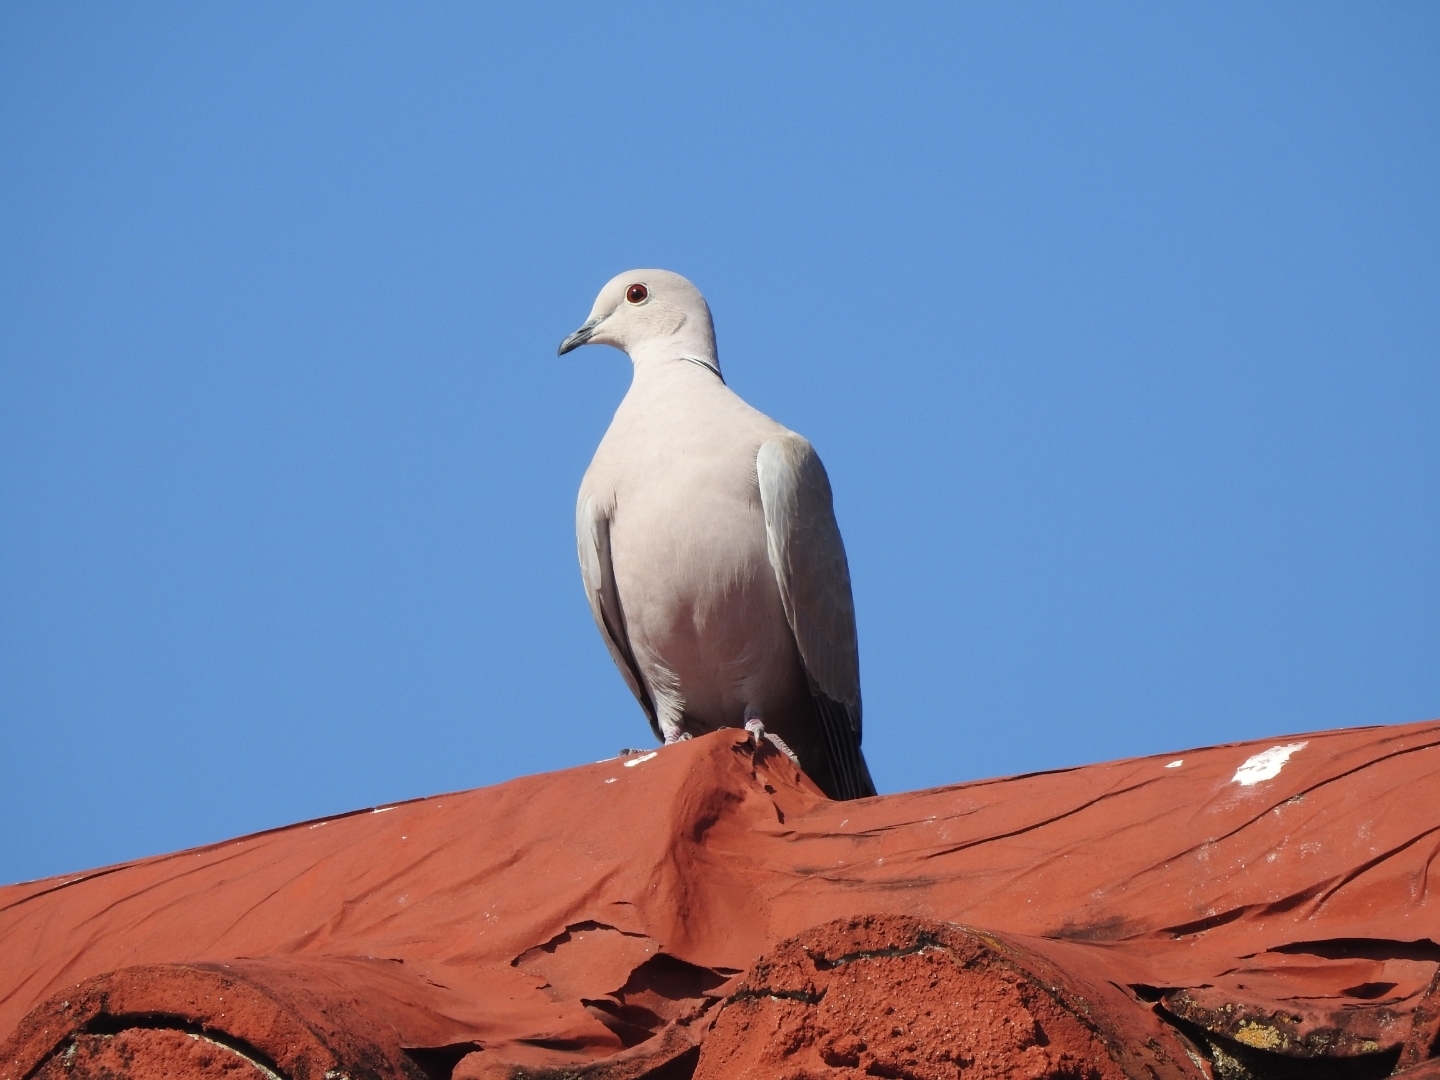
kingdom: Animalia
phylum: Chordata
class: Aves
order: Columbiformes
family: Columbidae
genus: Streptopelia
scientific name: Streptopelia decaocto
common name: Eurasian collared dove
